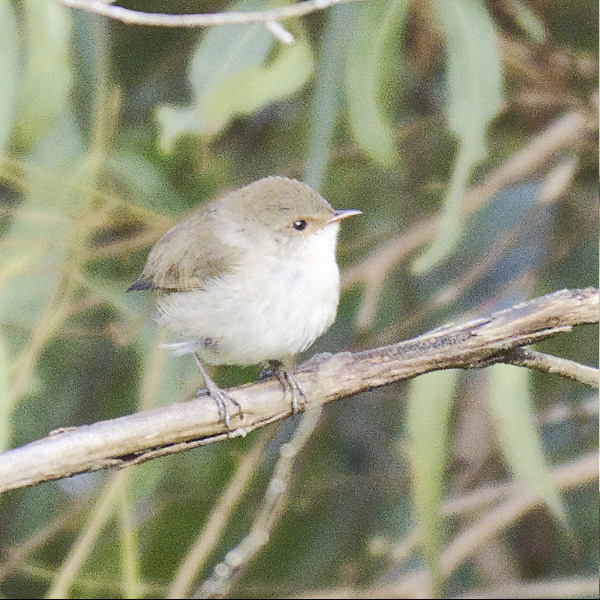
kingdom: Animalia
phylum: Chordata
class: Aves
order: Passeriformes
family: Maluridae
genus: Malurus
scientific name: Malurus cyaneus
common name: Superb fairywren
